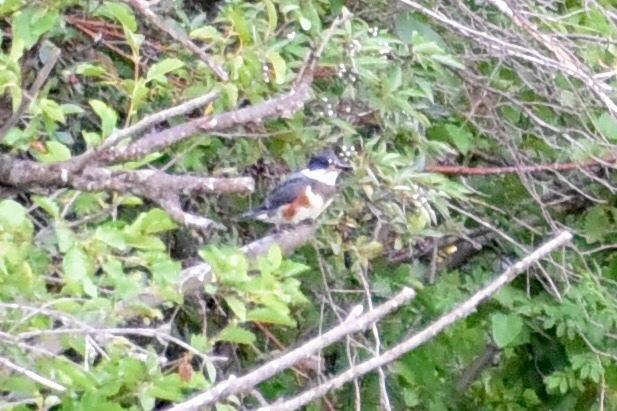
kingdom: Animalia
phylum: Chordata
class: Aves
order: Coraciiformes
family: Alcedinidae
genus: Megaceryle
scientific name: Megaceryle alcyon
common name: Belted kingfisher
